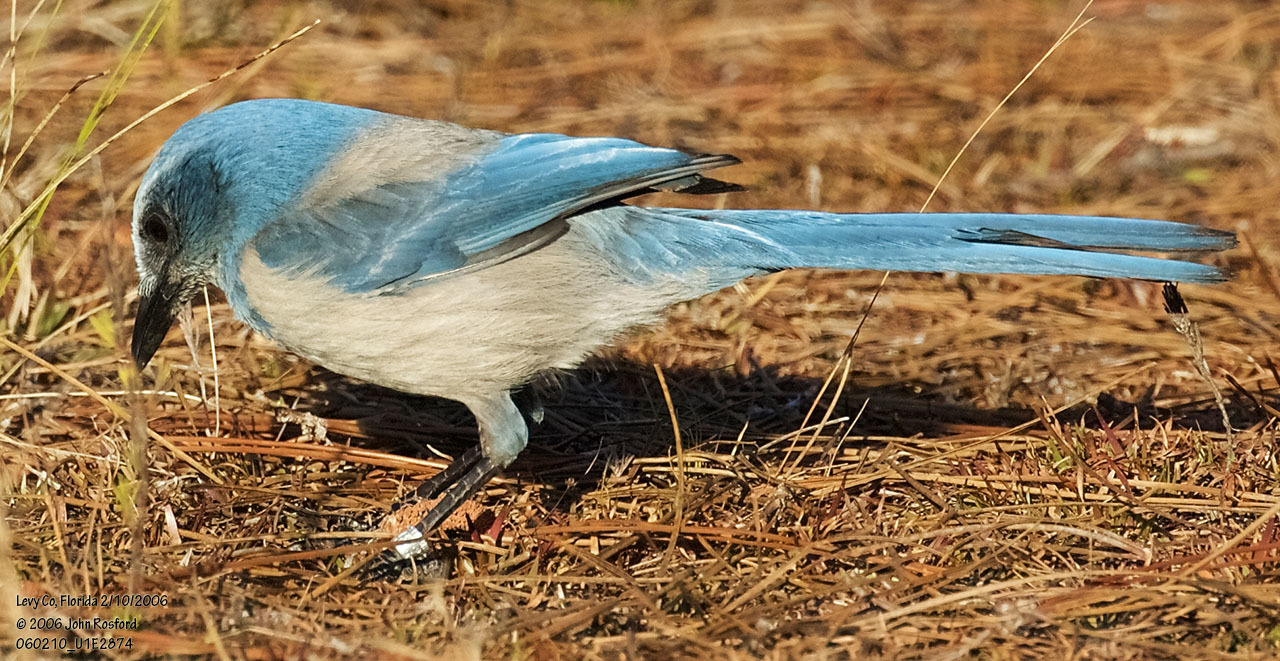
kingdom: Animalia
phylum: Chordata
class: Aves
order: Passeriformes
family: Corvidae
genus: Aphelocoma
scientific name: Aphelocoma coerulescens
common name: Florida scrub jay
